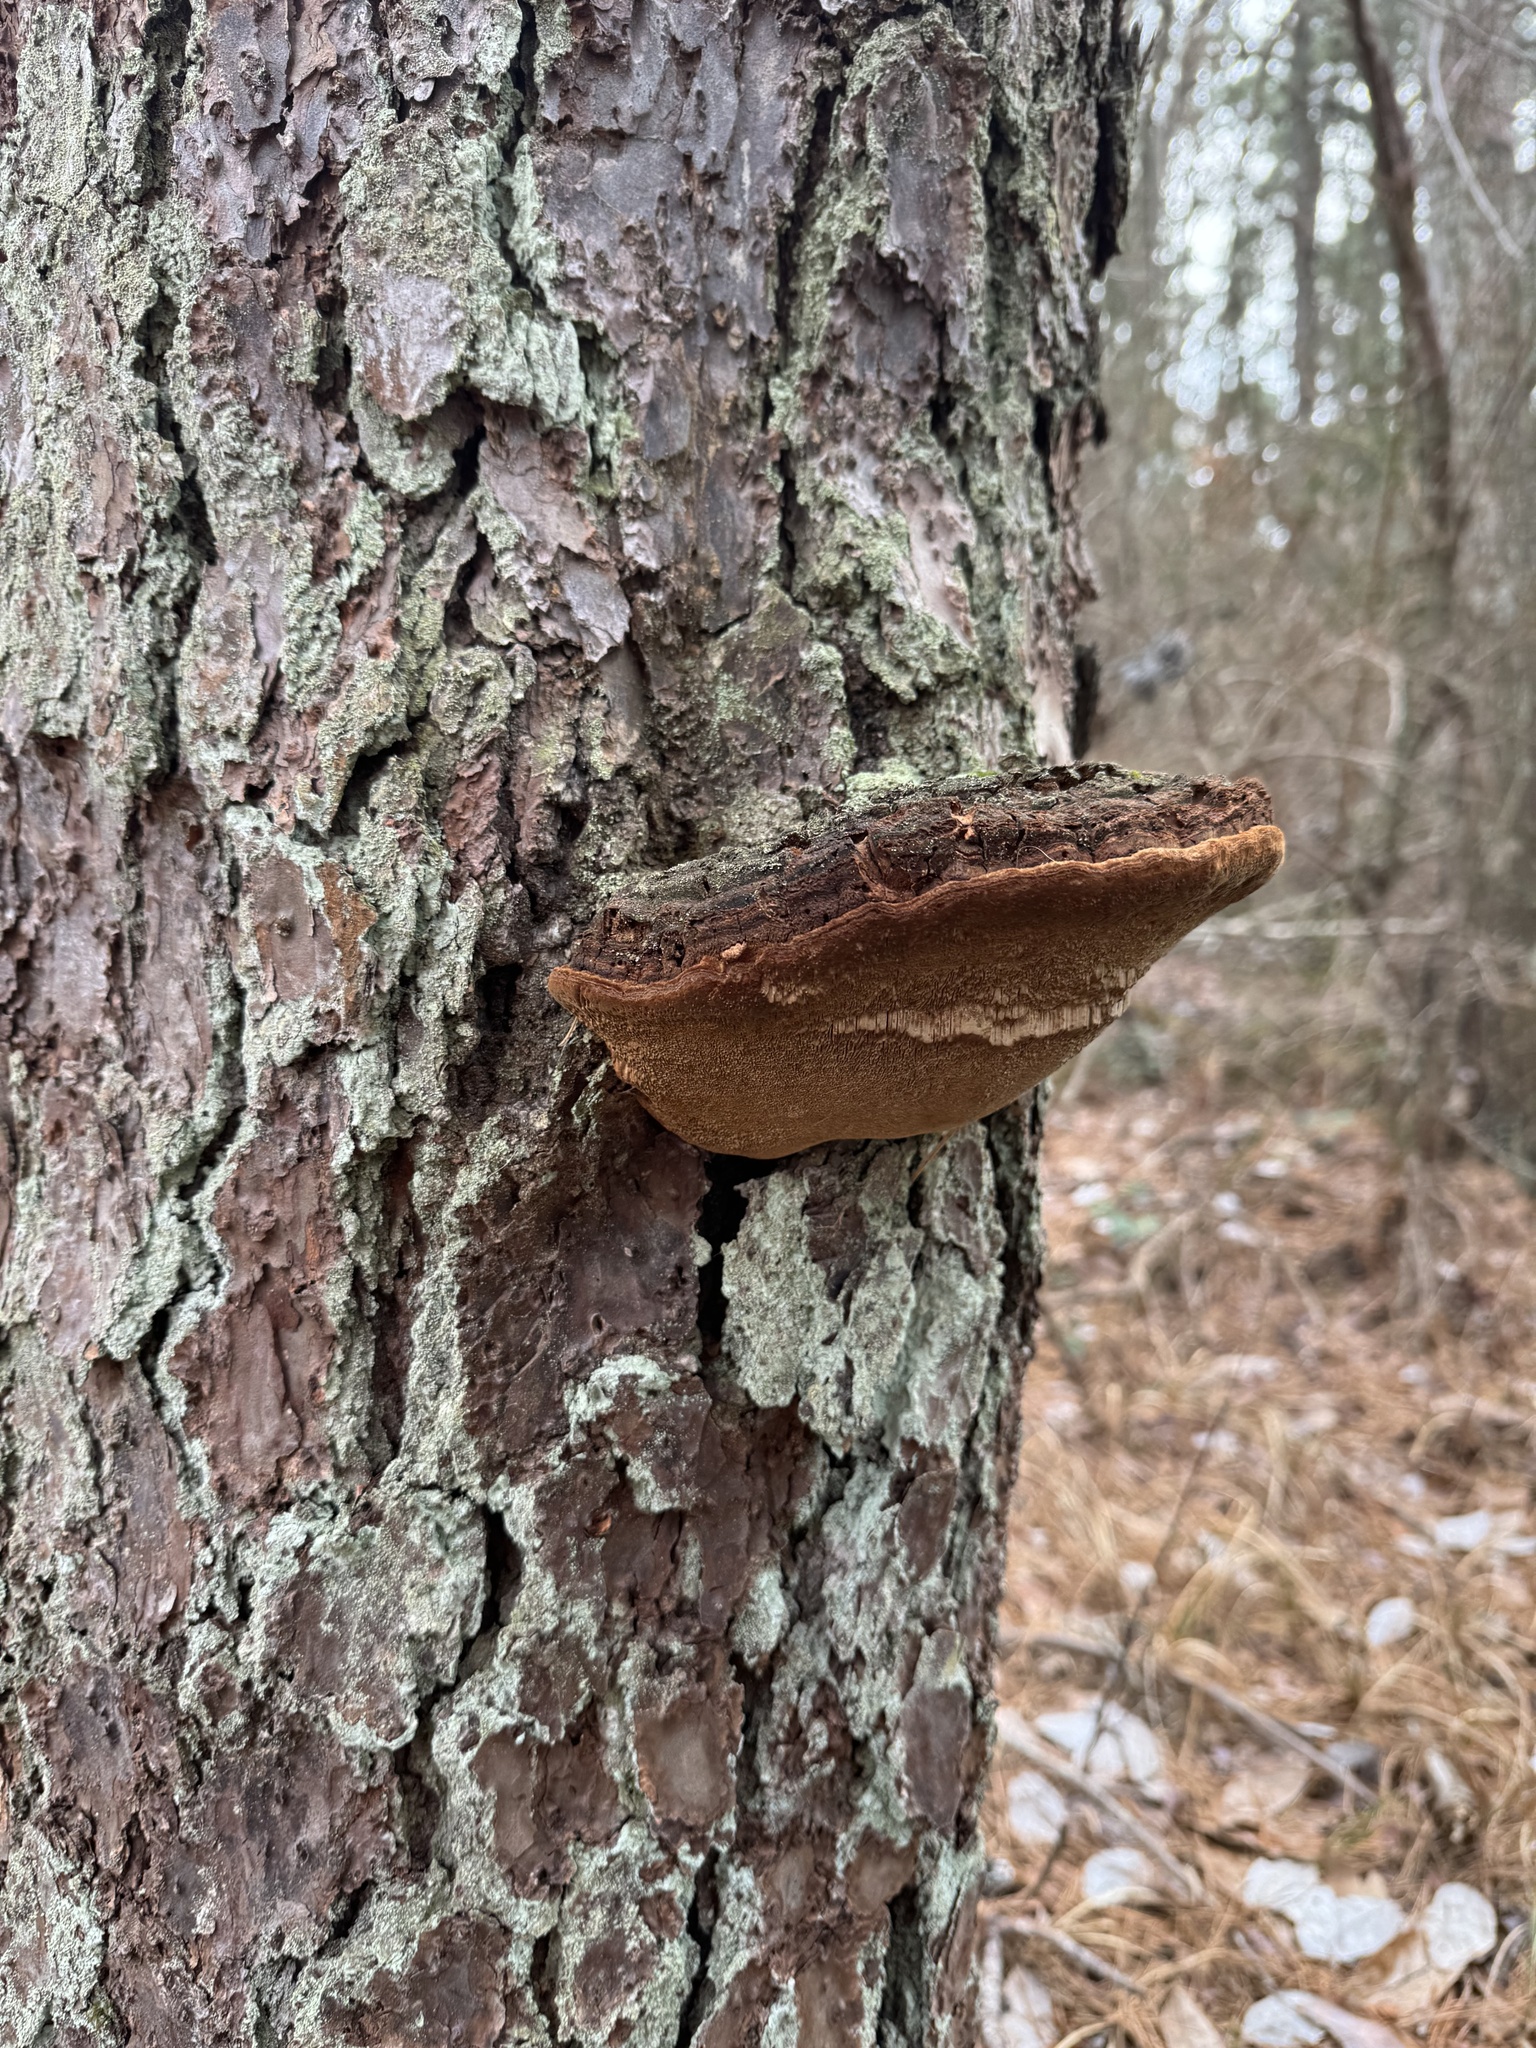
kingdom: Fungi
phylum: Basidiomycota
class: Agaricomycetes
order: Hymenochaetales
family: Hymenochaetaceae
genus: Porodaedalea
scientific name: Porodaedalea pini
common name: Pine bracket
